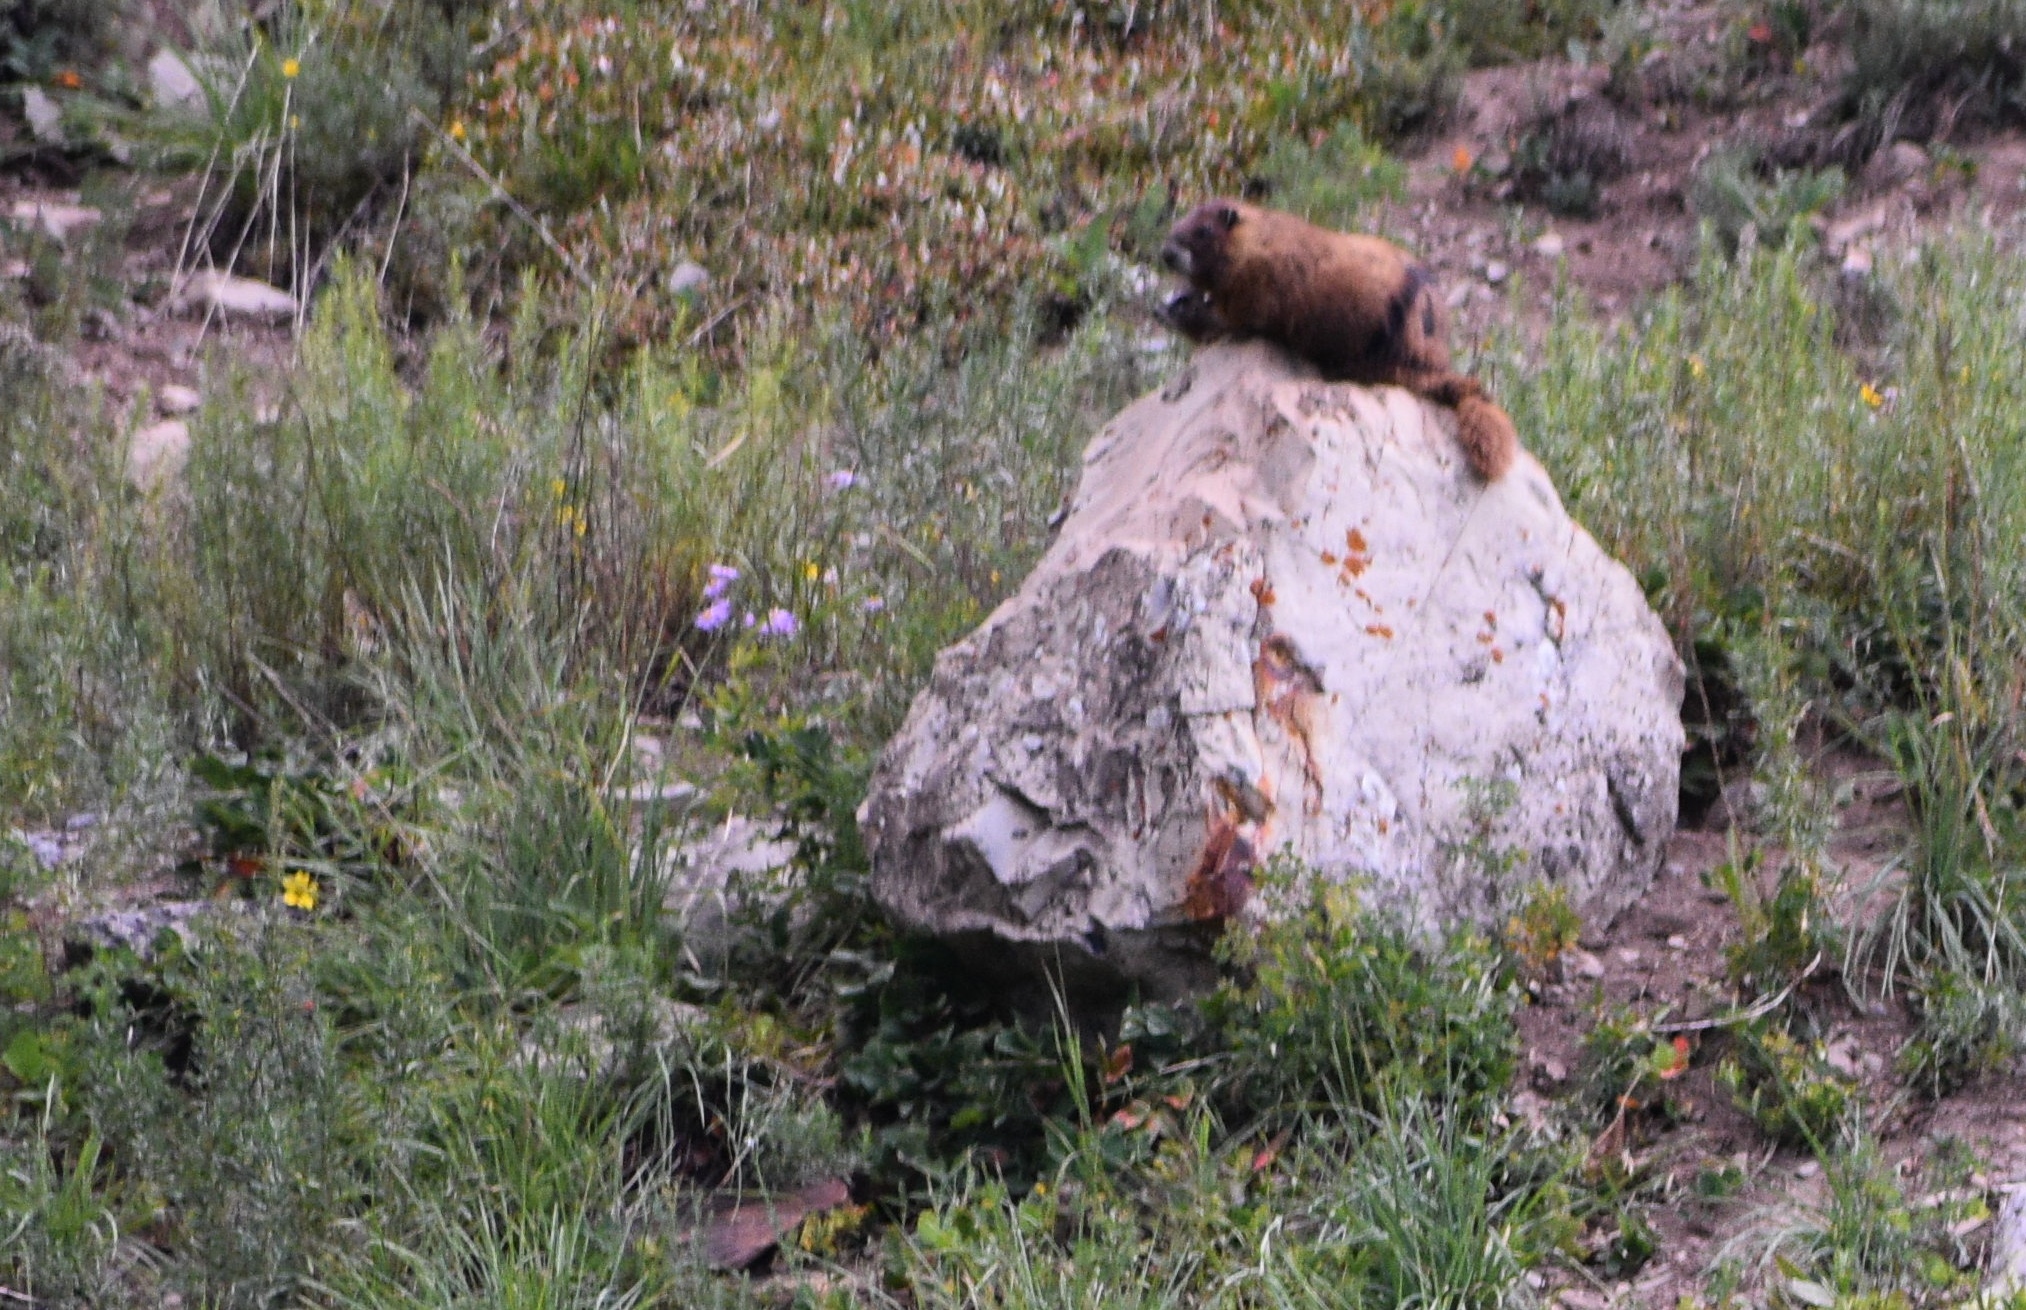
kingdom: Animalia
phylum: Chordata
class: Mammalia
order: Rodentia
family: Sciuridae
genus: Marmota
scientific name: Marmota flaviventris
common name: Yellow-bellied marmot
